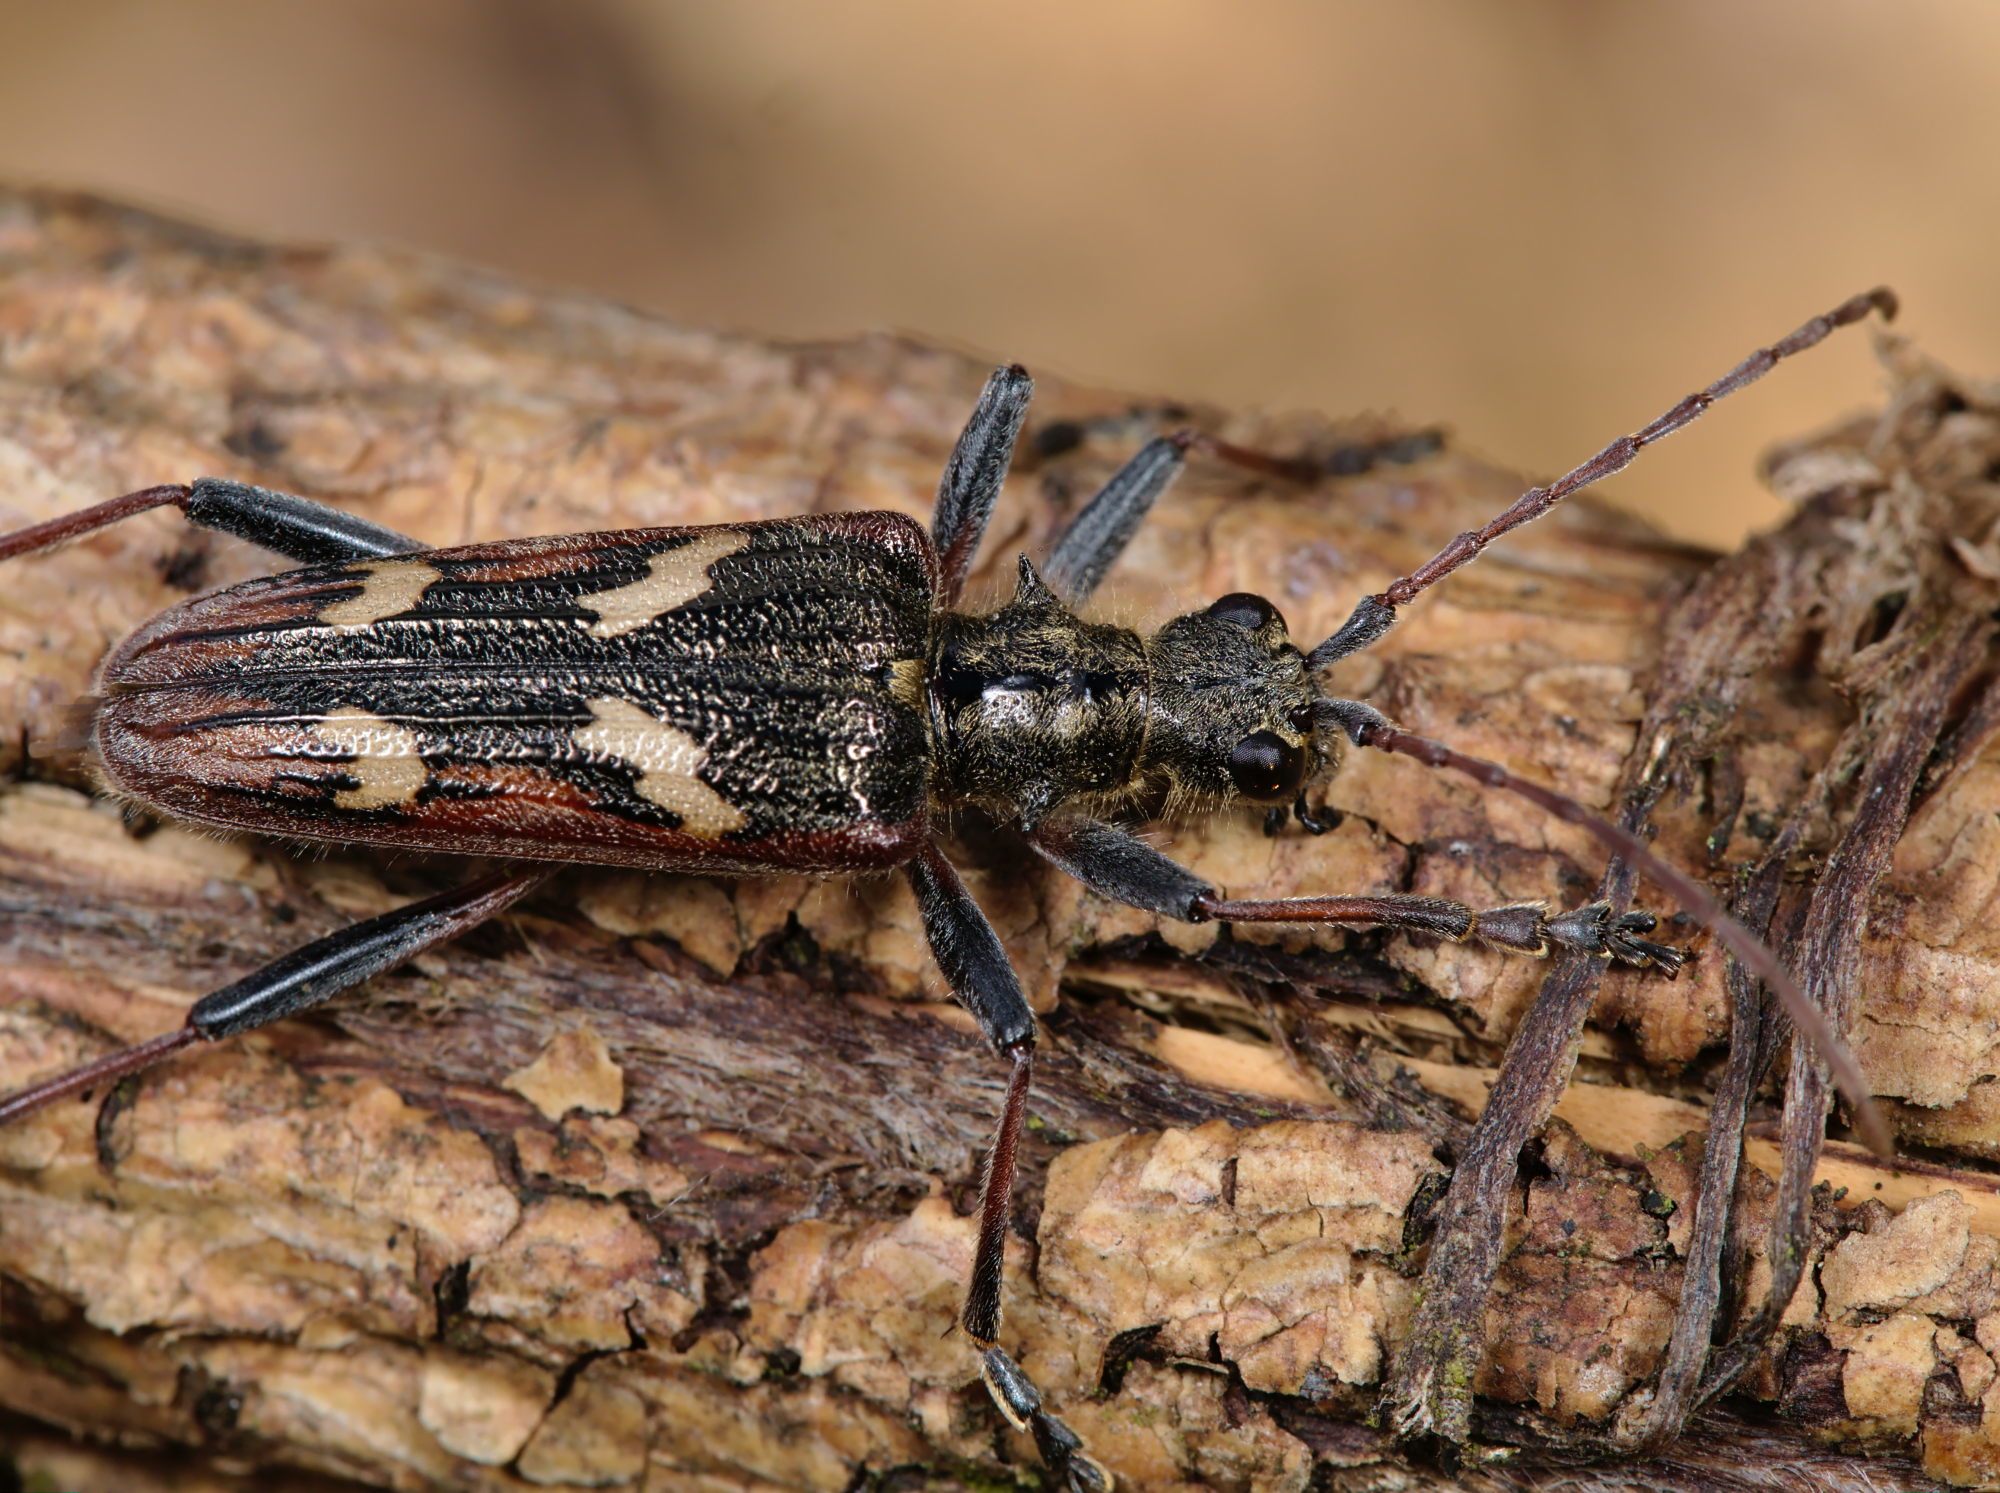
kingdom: Animalia
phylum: Arthropoda
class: Insecta
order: Coleoptera
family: Cerambycidae
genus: Rhagium
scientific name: Rhagium bifasciatum
